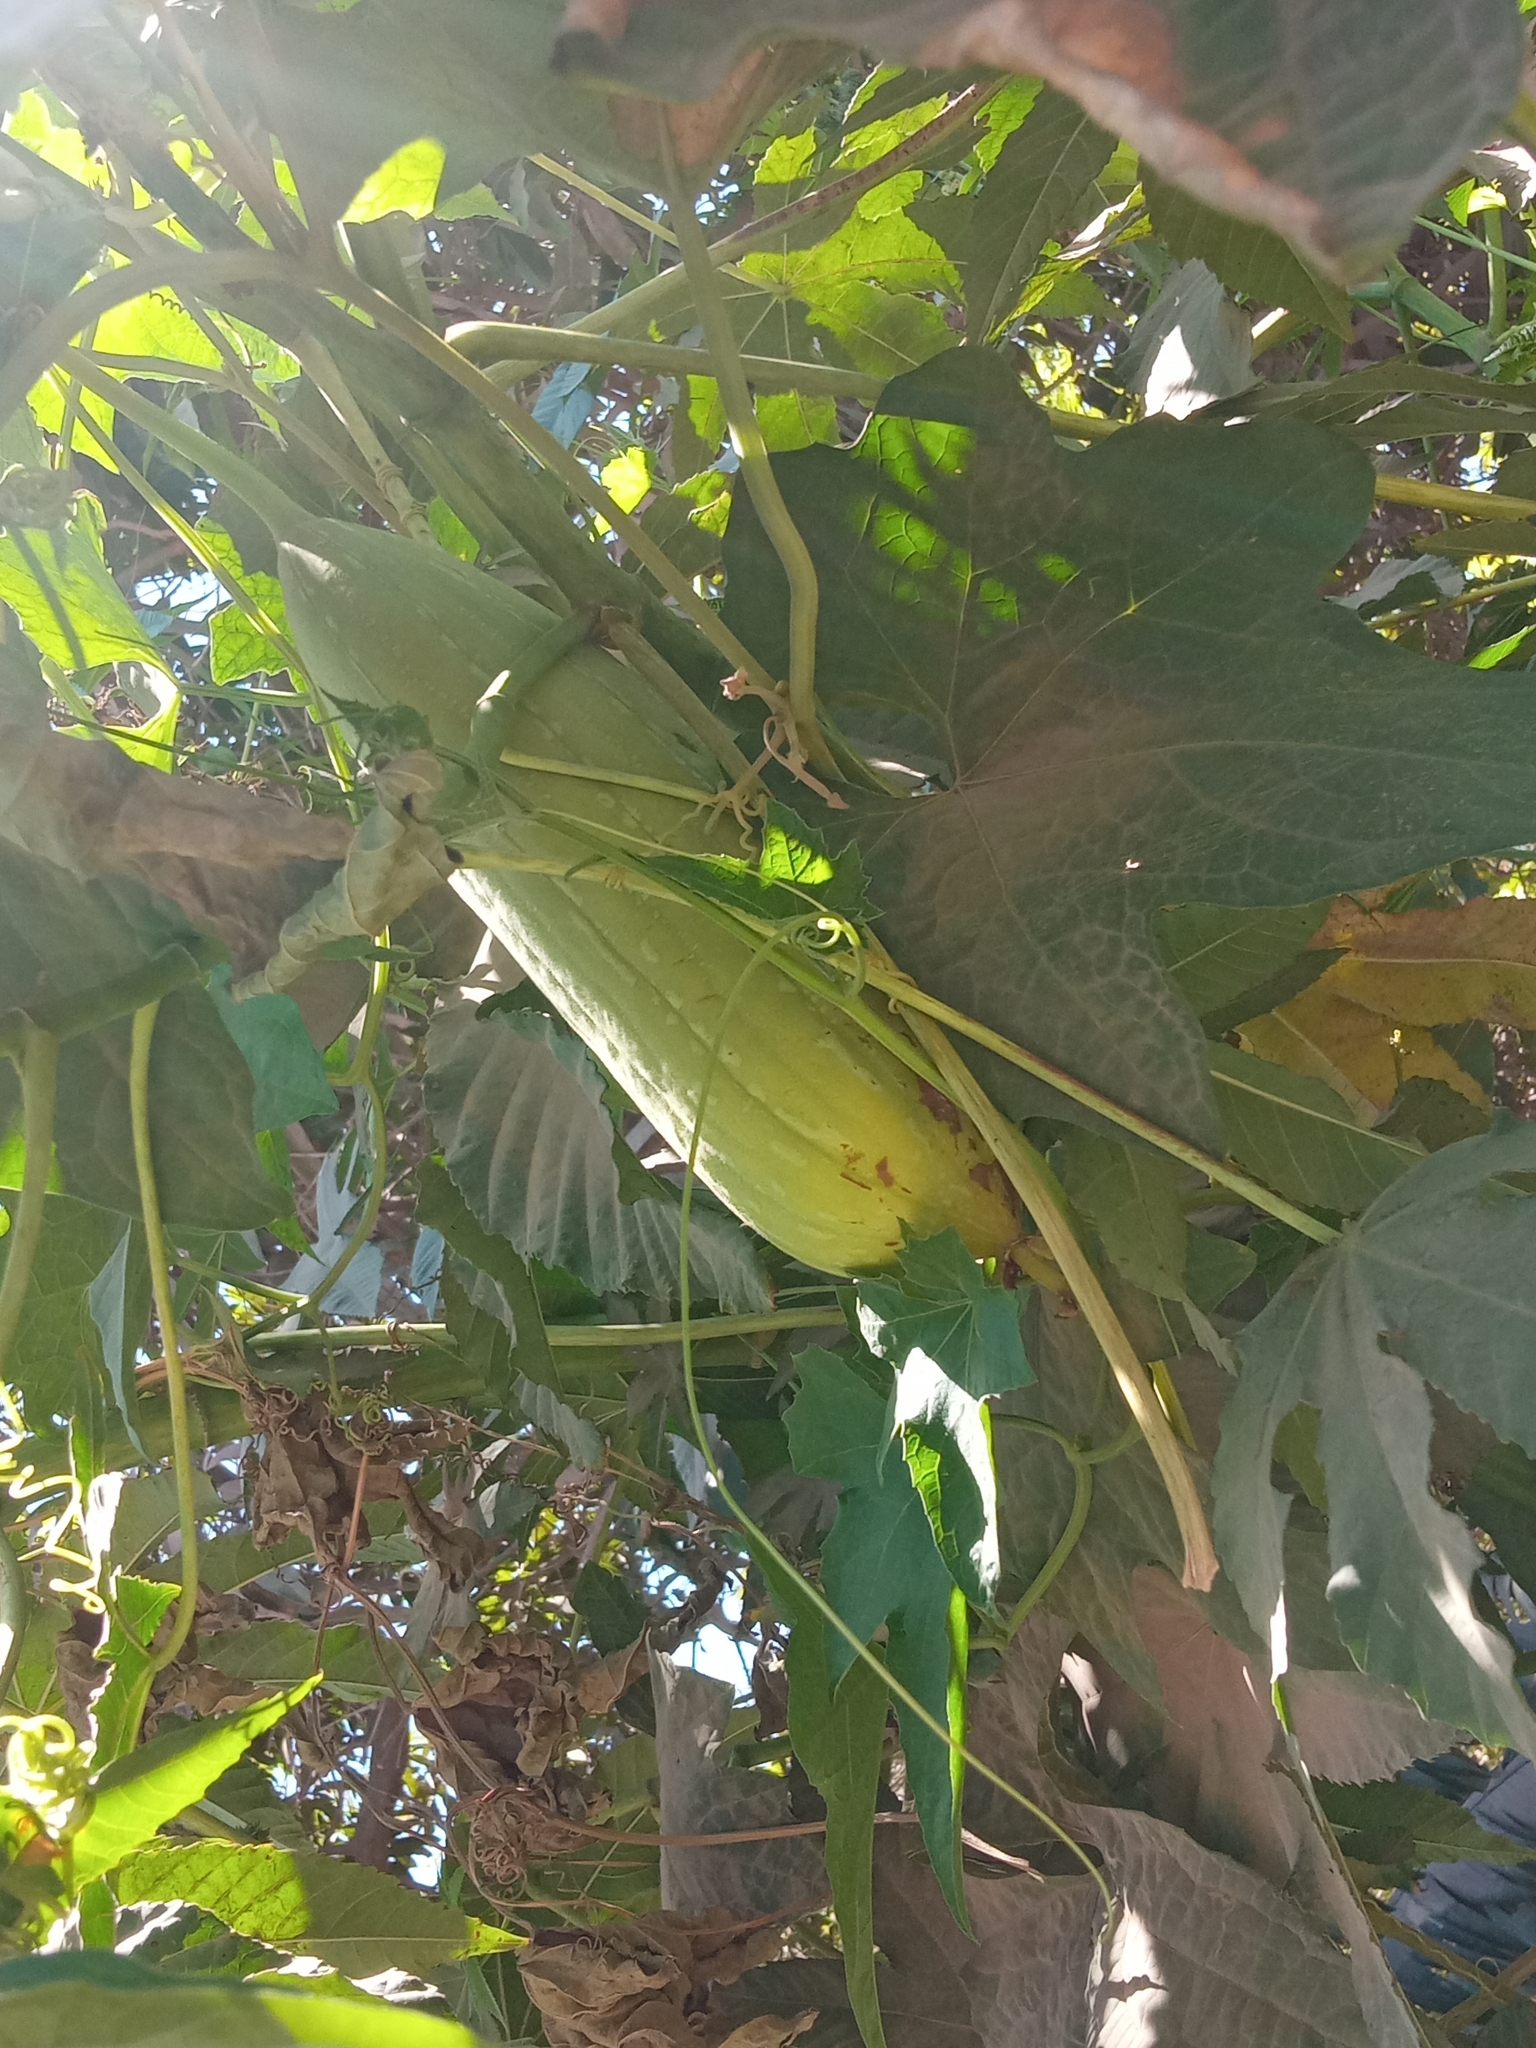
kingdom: Plantae
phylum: Tracheophyta
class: Magnoliopsida
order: Cucurbitales
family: Cucurbitaceae
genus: Luffa
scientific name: Luffa aegyptiaca
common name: Sponge gourd
